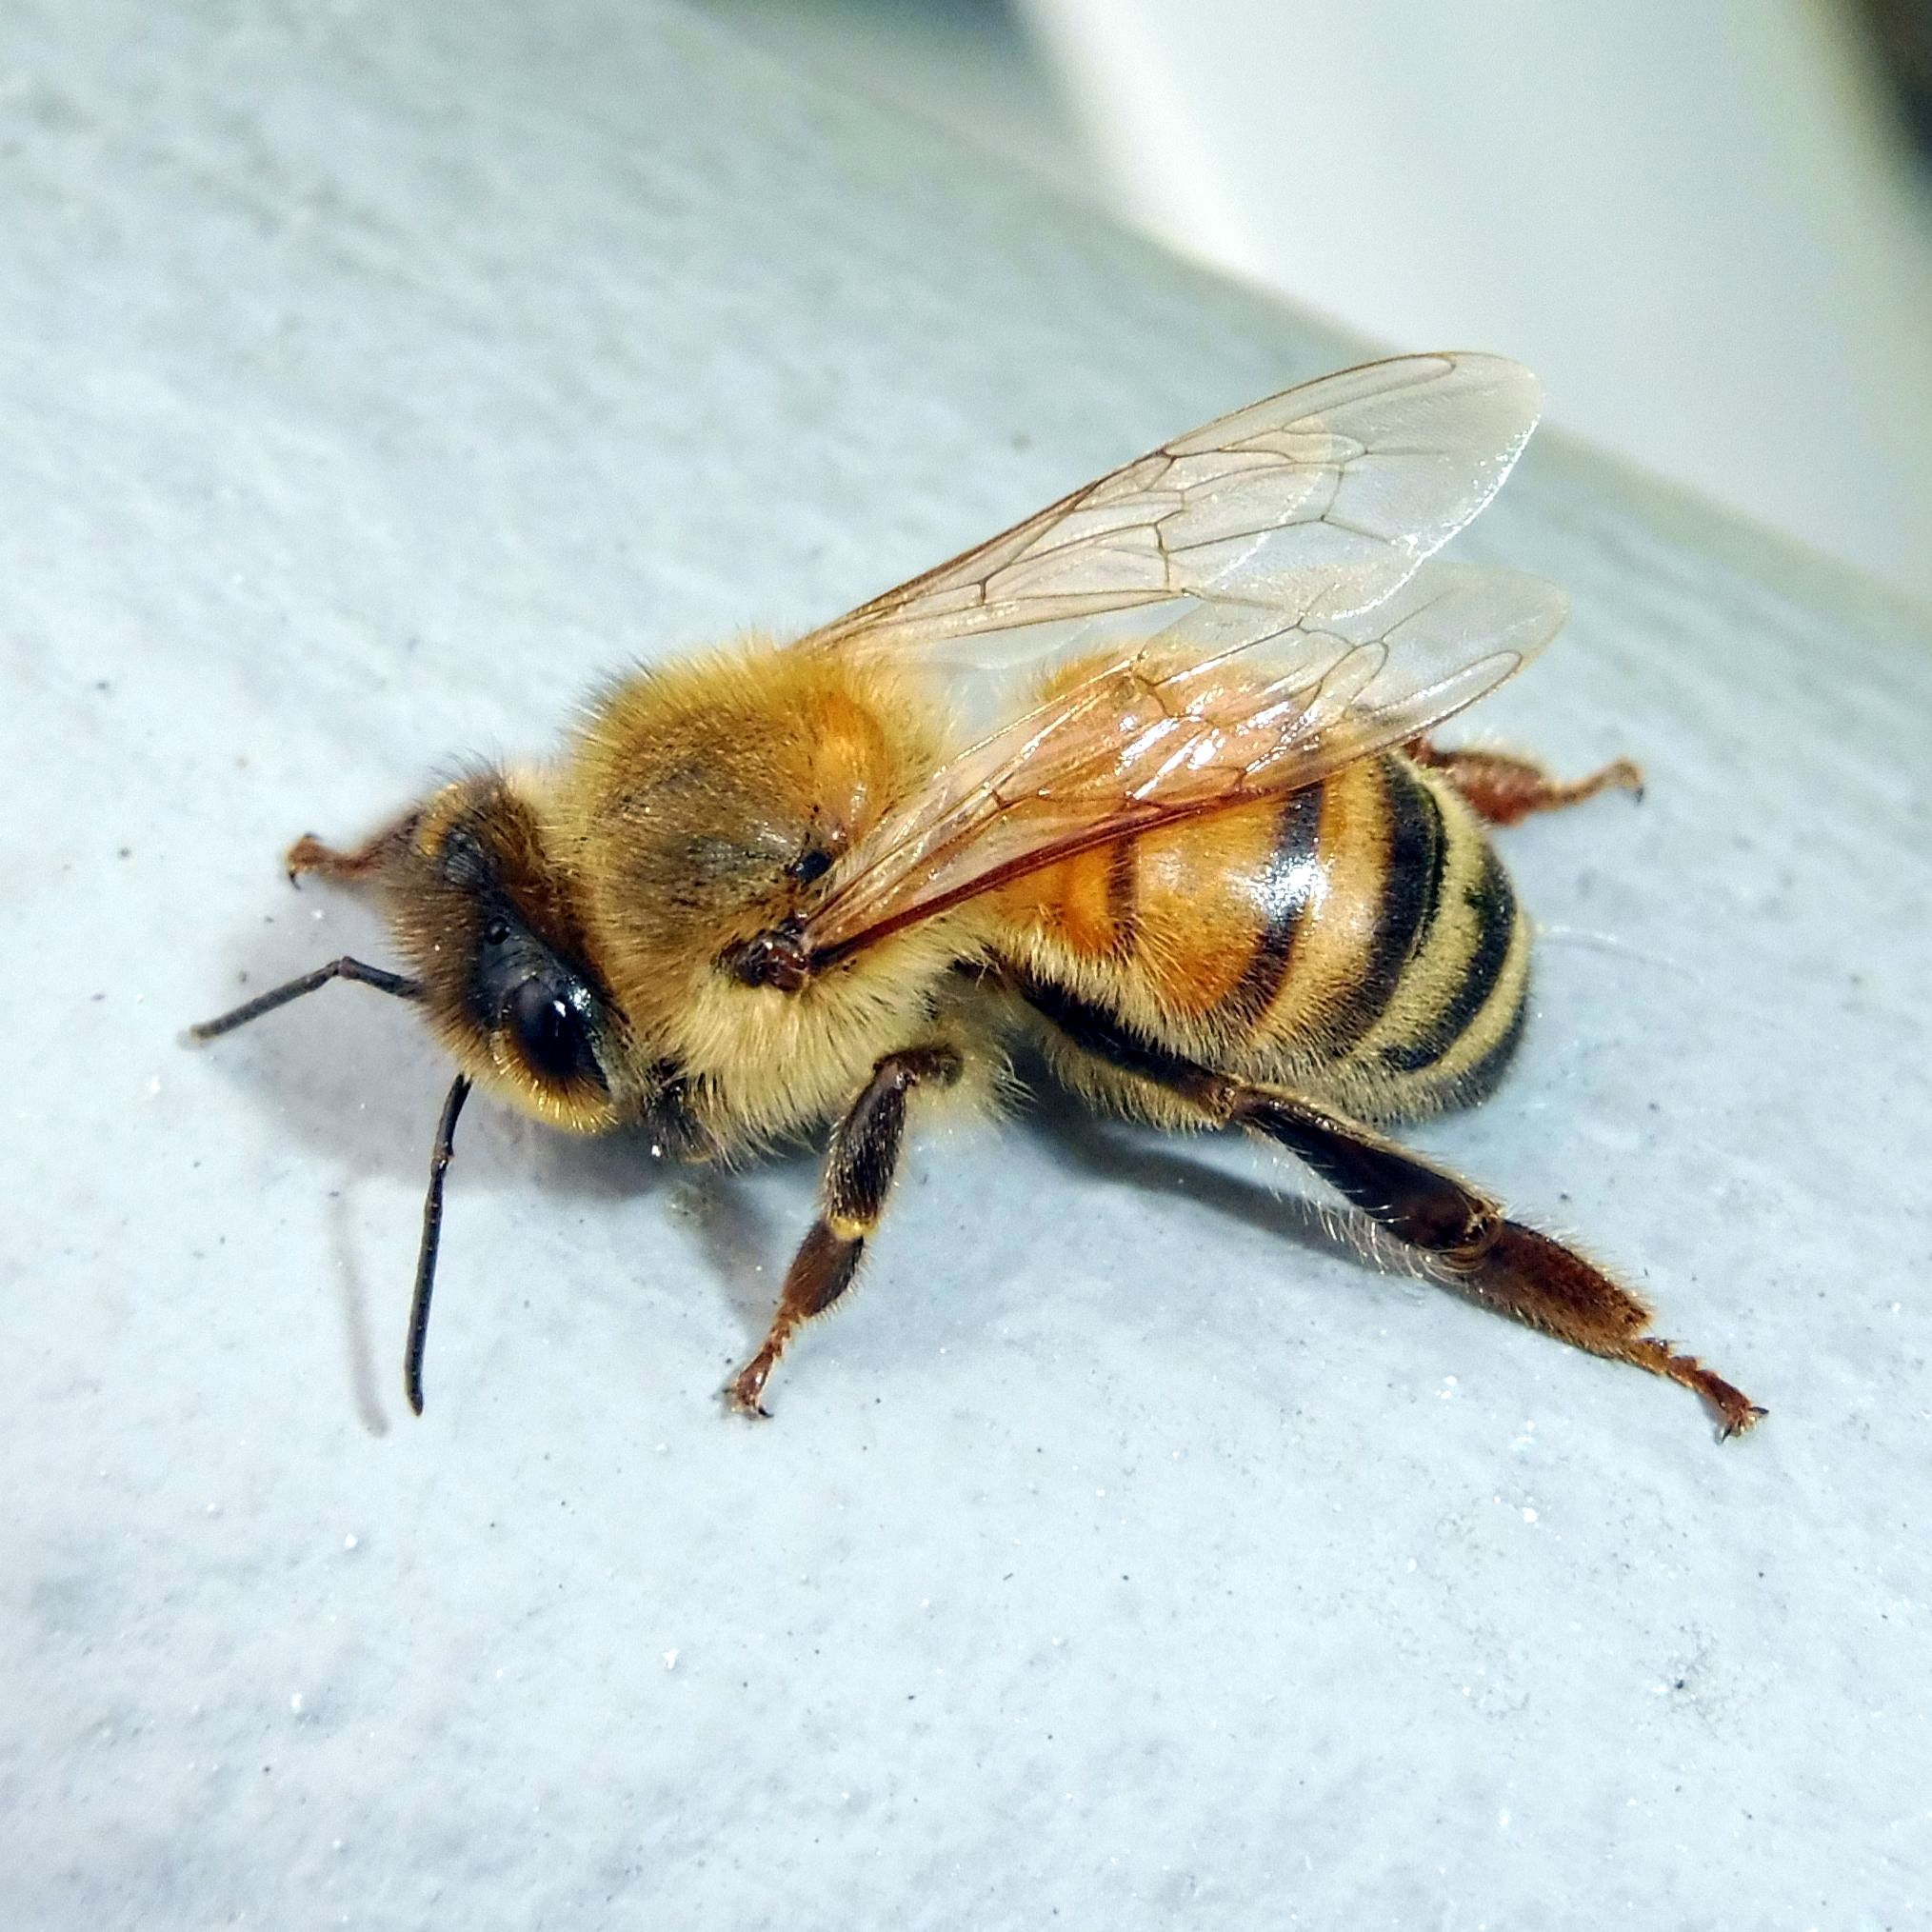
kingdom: Animalia
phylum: Arthropoda
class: Insecta
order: Hymenoptera
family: Apidae
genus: Apis
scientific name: Apis mellifera
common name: Honey bee
